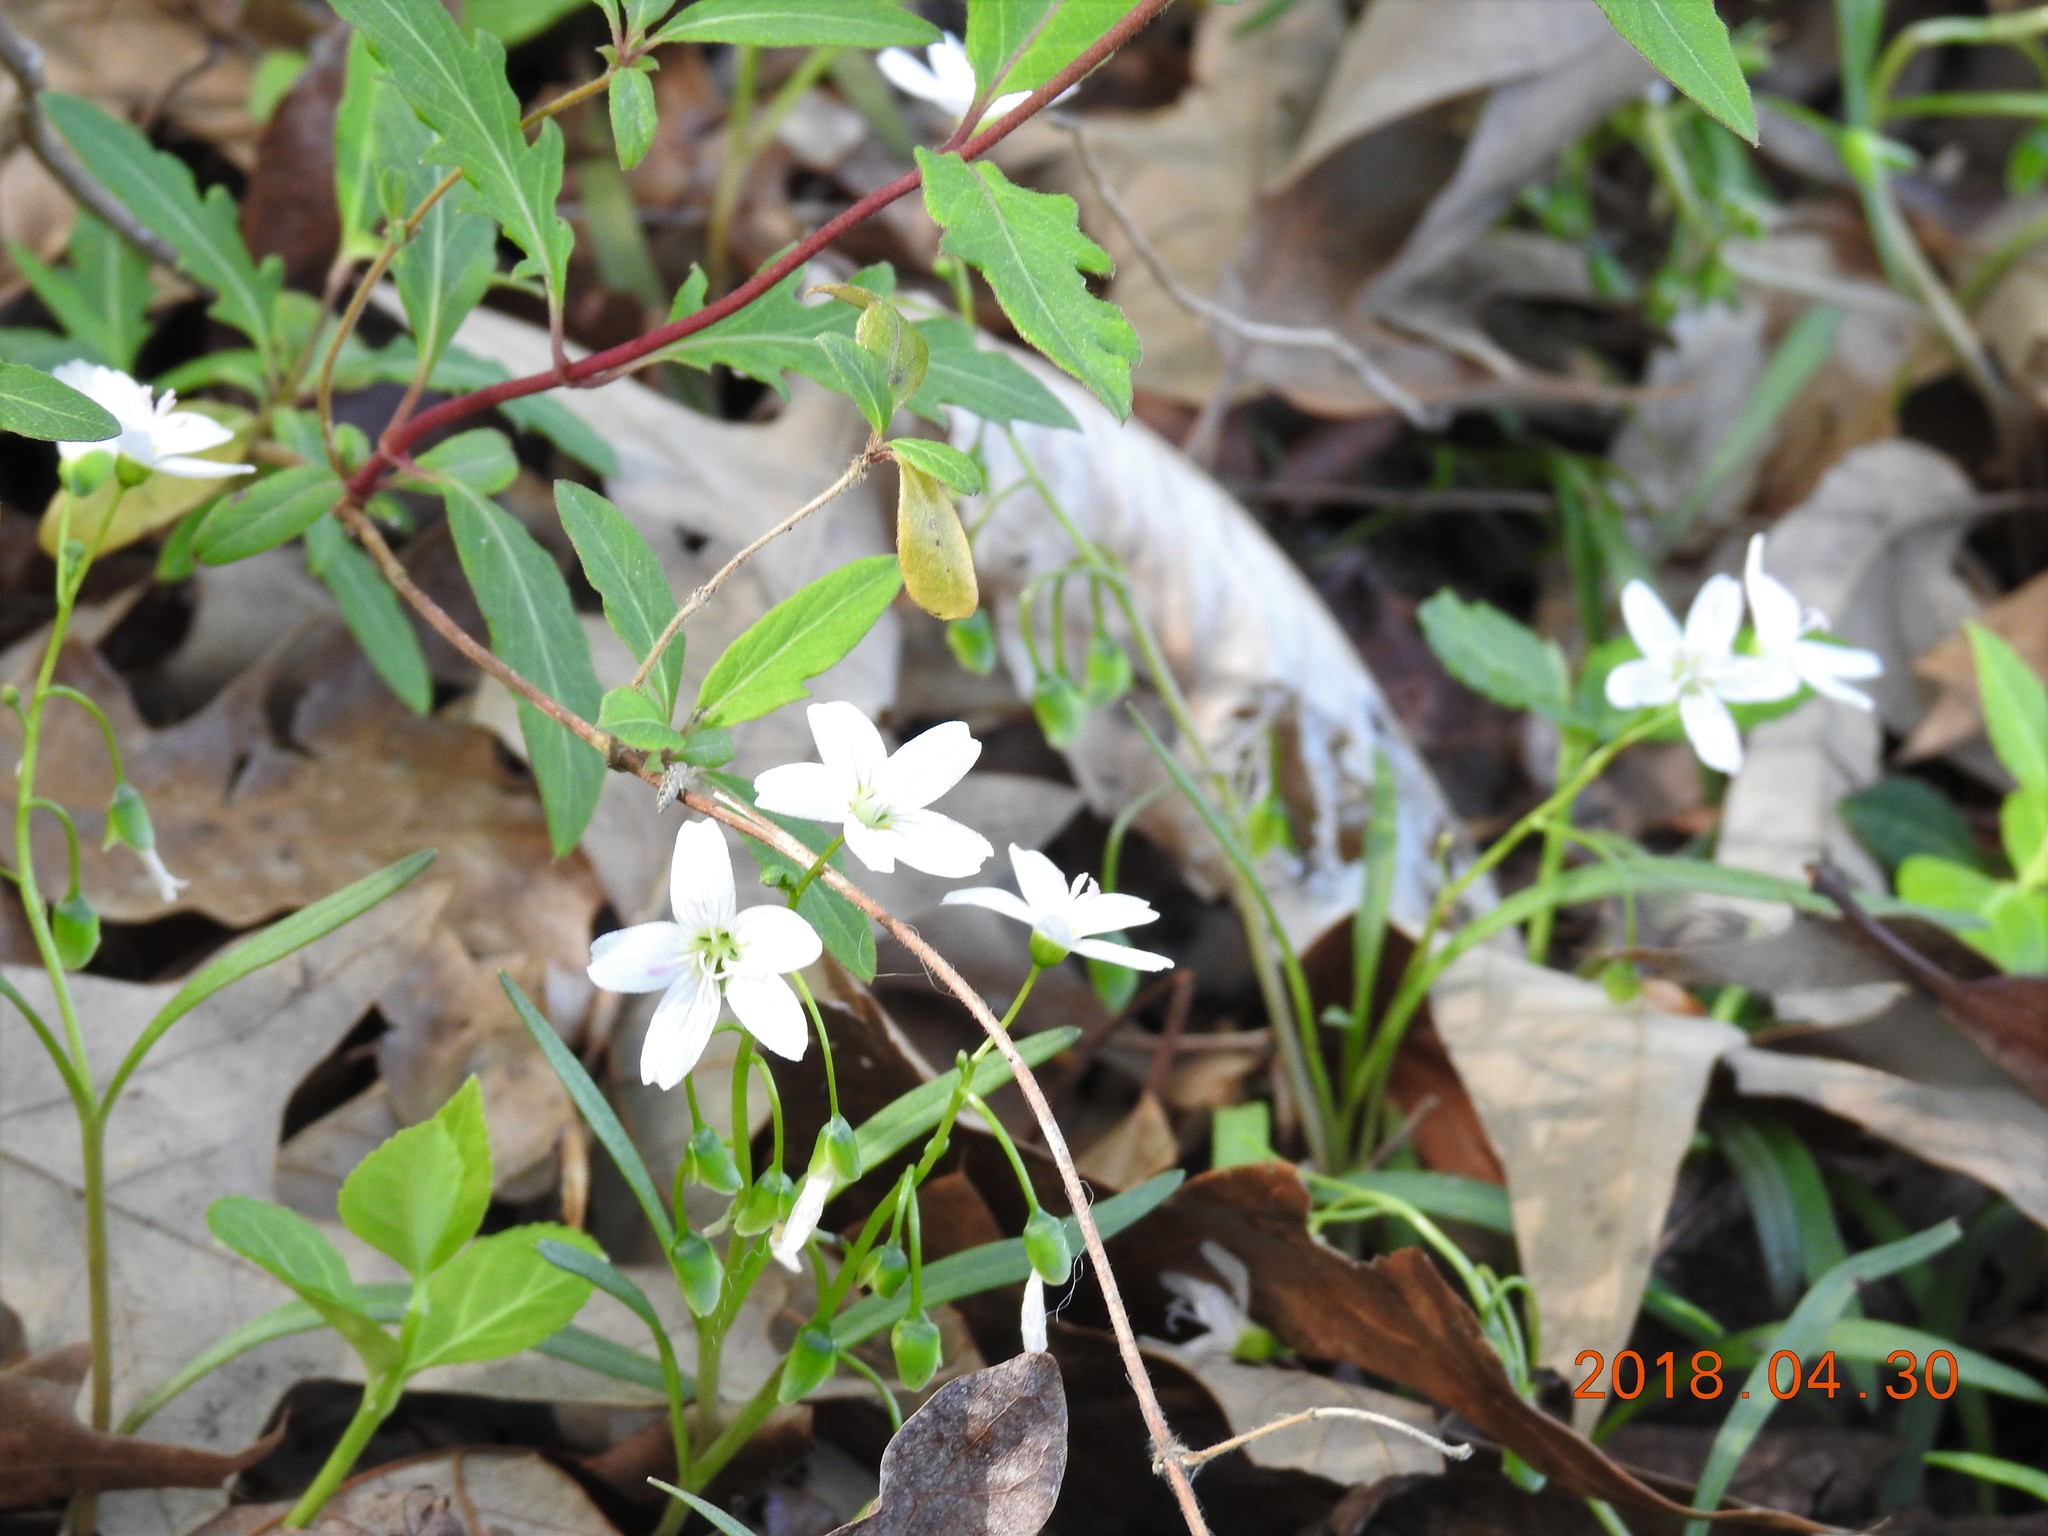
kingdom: Plantae
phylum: Tracheophyta
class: Magnoliopsida
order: Caryophyllales
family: Montiaceae
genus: Claytonia
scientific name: Claytonia virginica
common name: Virginia springbeauty
